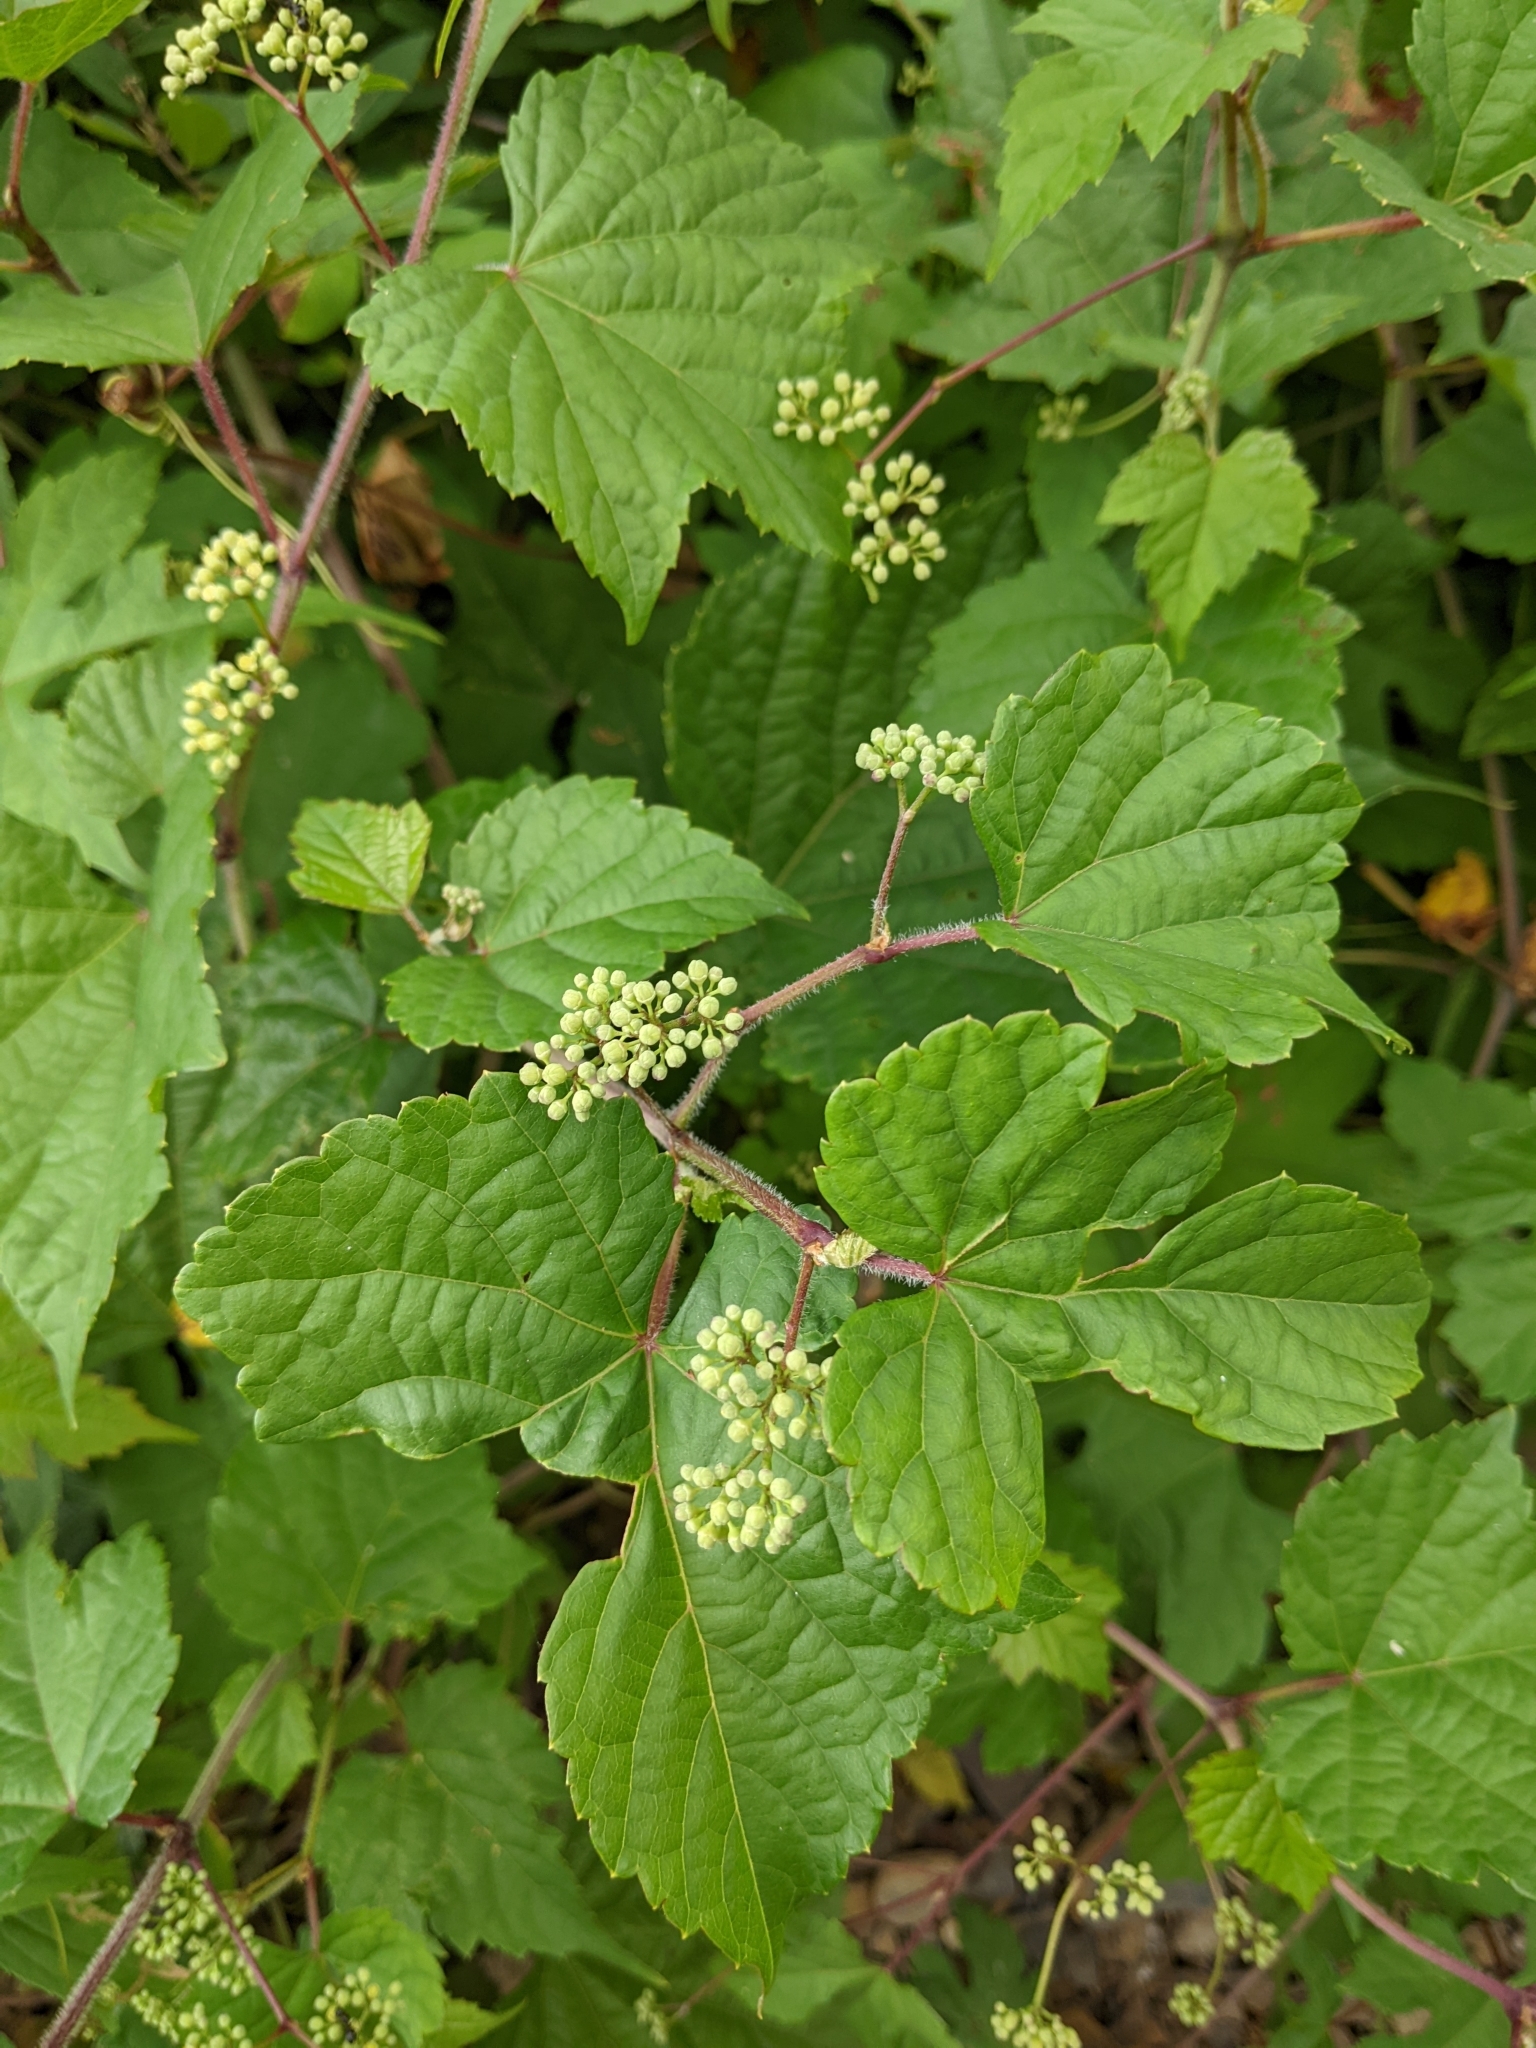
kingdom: Plantae
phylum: Tracheophyta
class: Magnoliopsida
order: Vitales
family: Vitaceae
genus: Ampelopsis
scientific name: Ampelopsis glandulosa
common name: Amur peppervine
